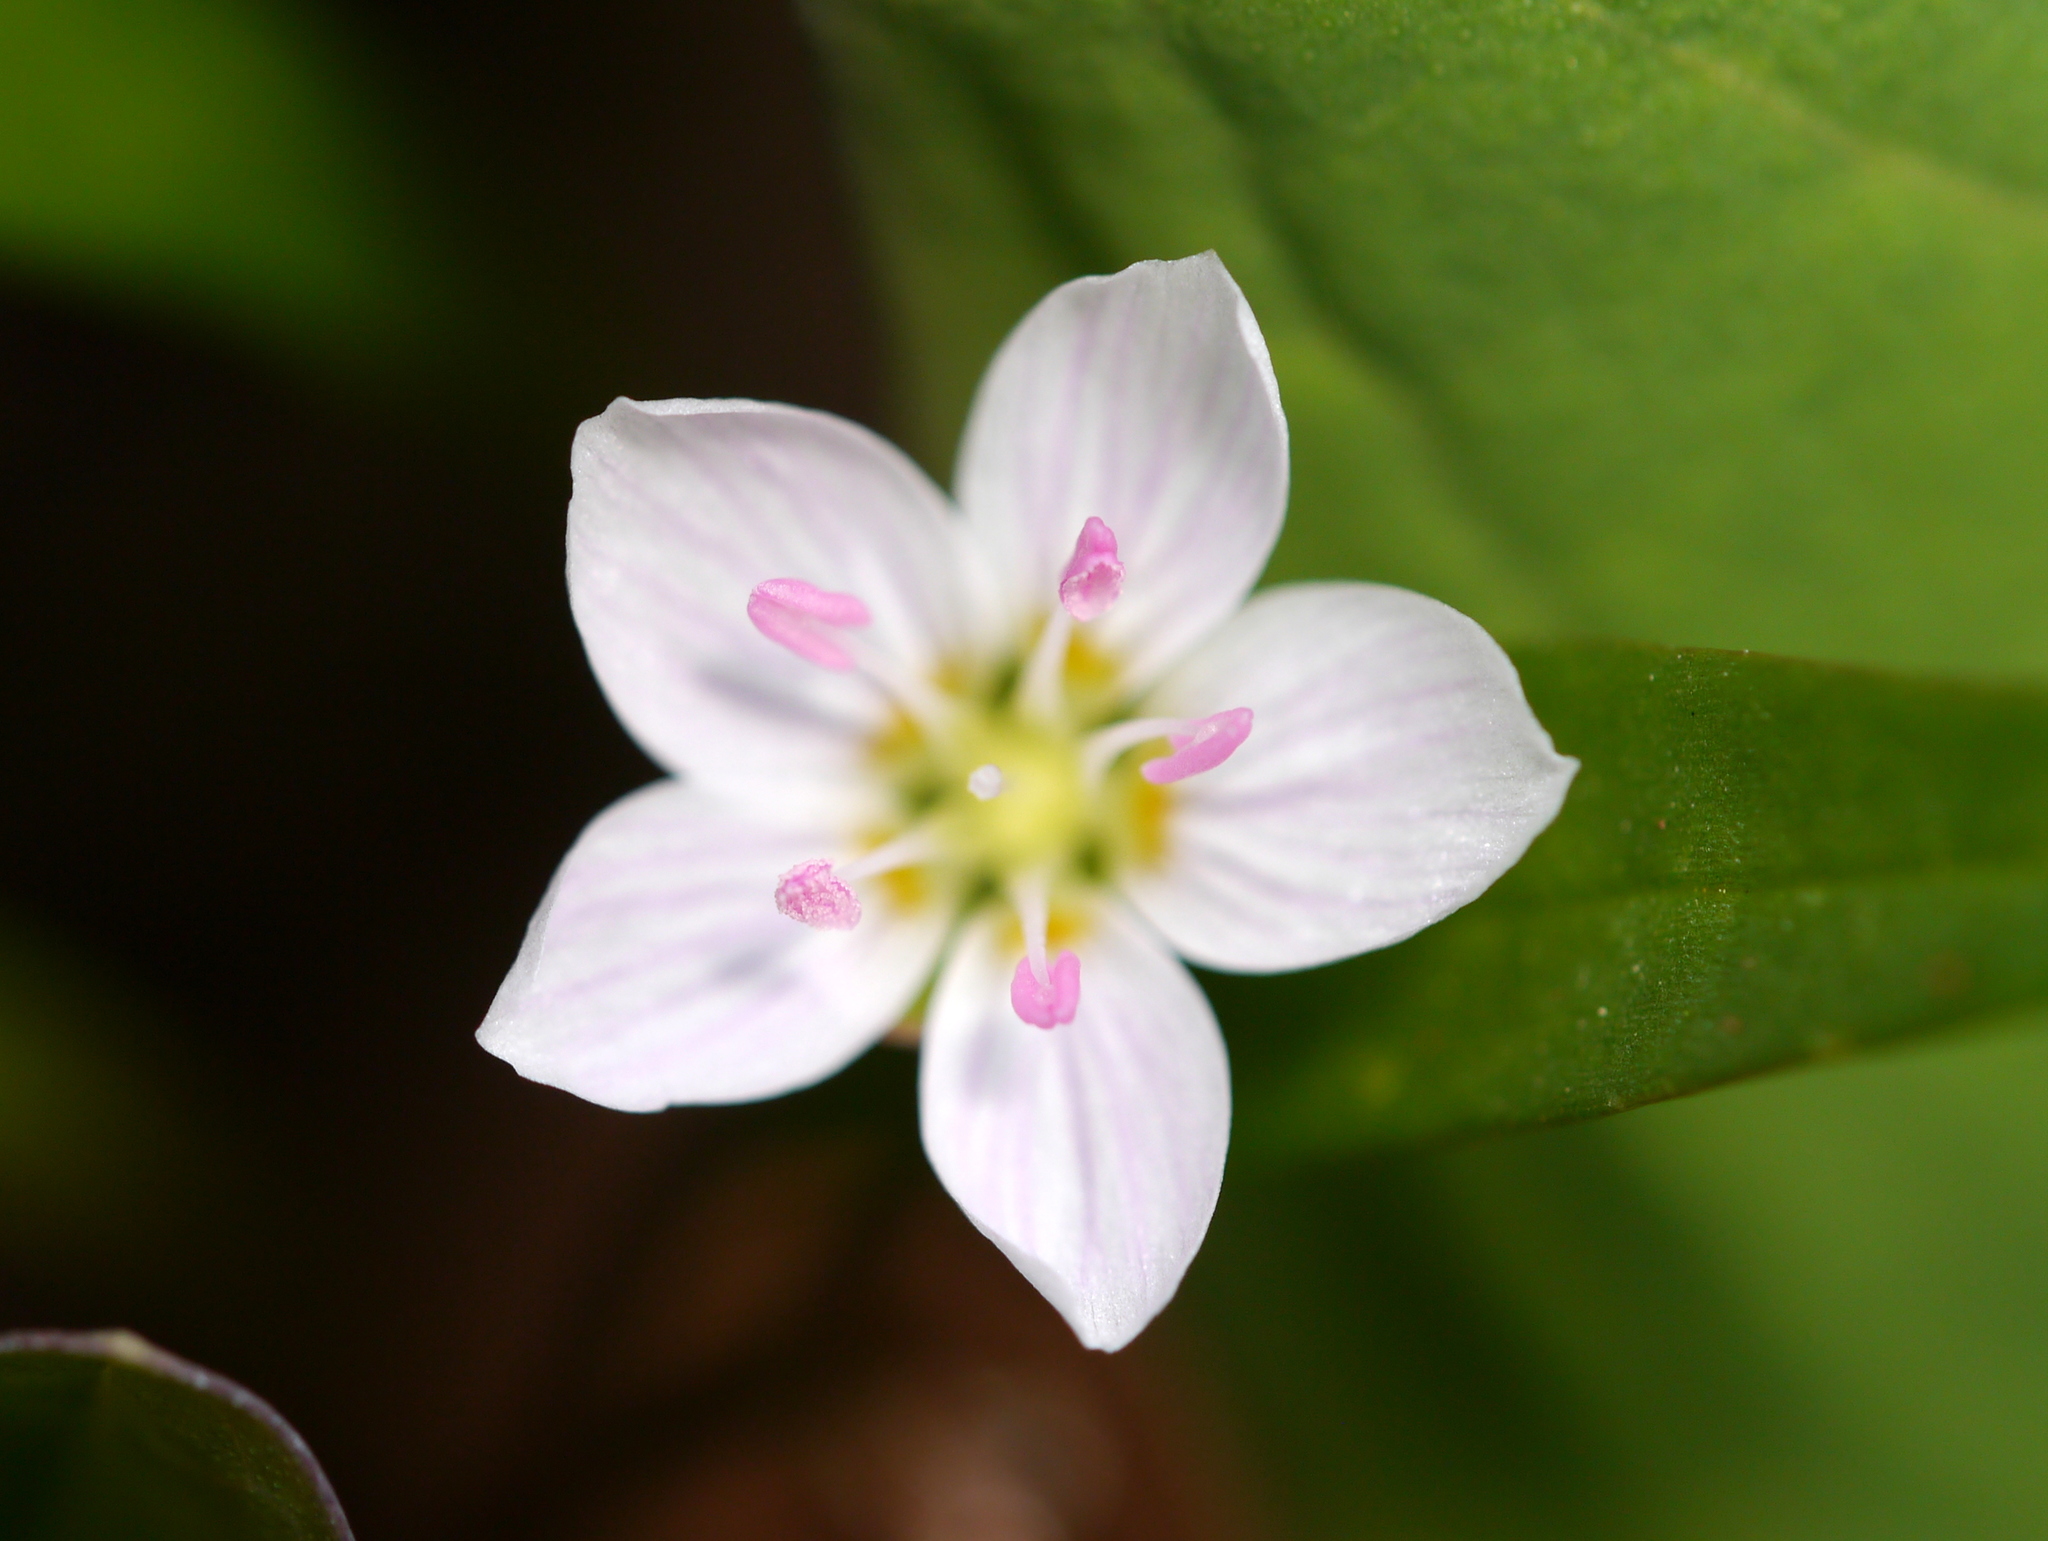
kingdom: Plantae
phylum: Tracheophyta
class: Magnoliopsida
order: Caryophyllales
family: Montiaceae
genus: Claytonia
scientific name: Claytonia virginica
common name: Virginia springbeauty
